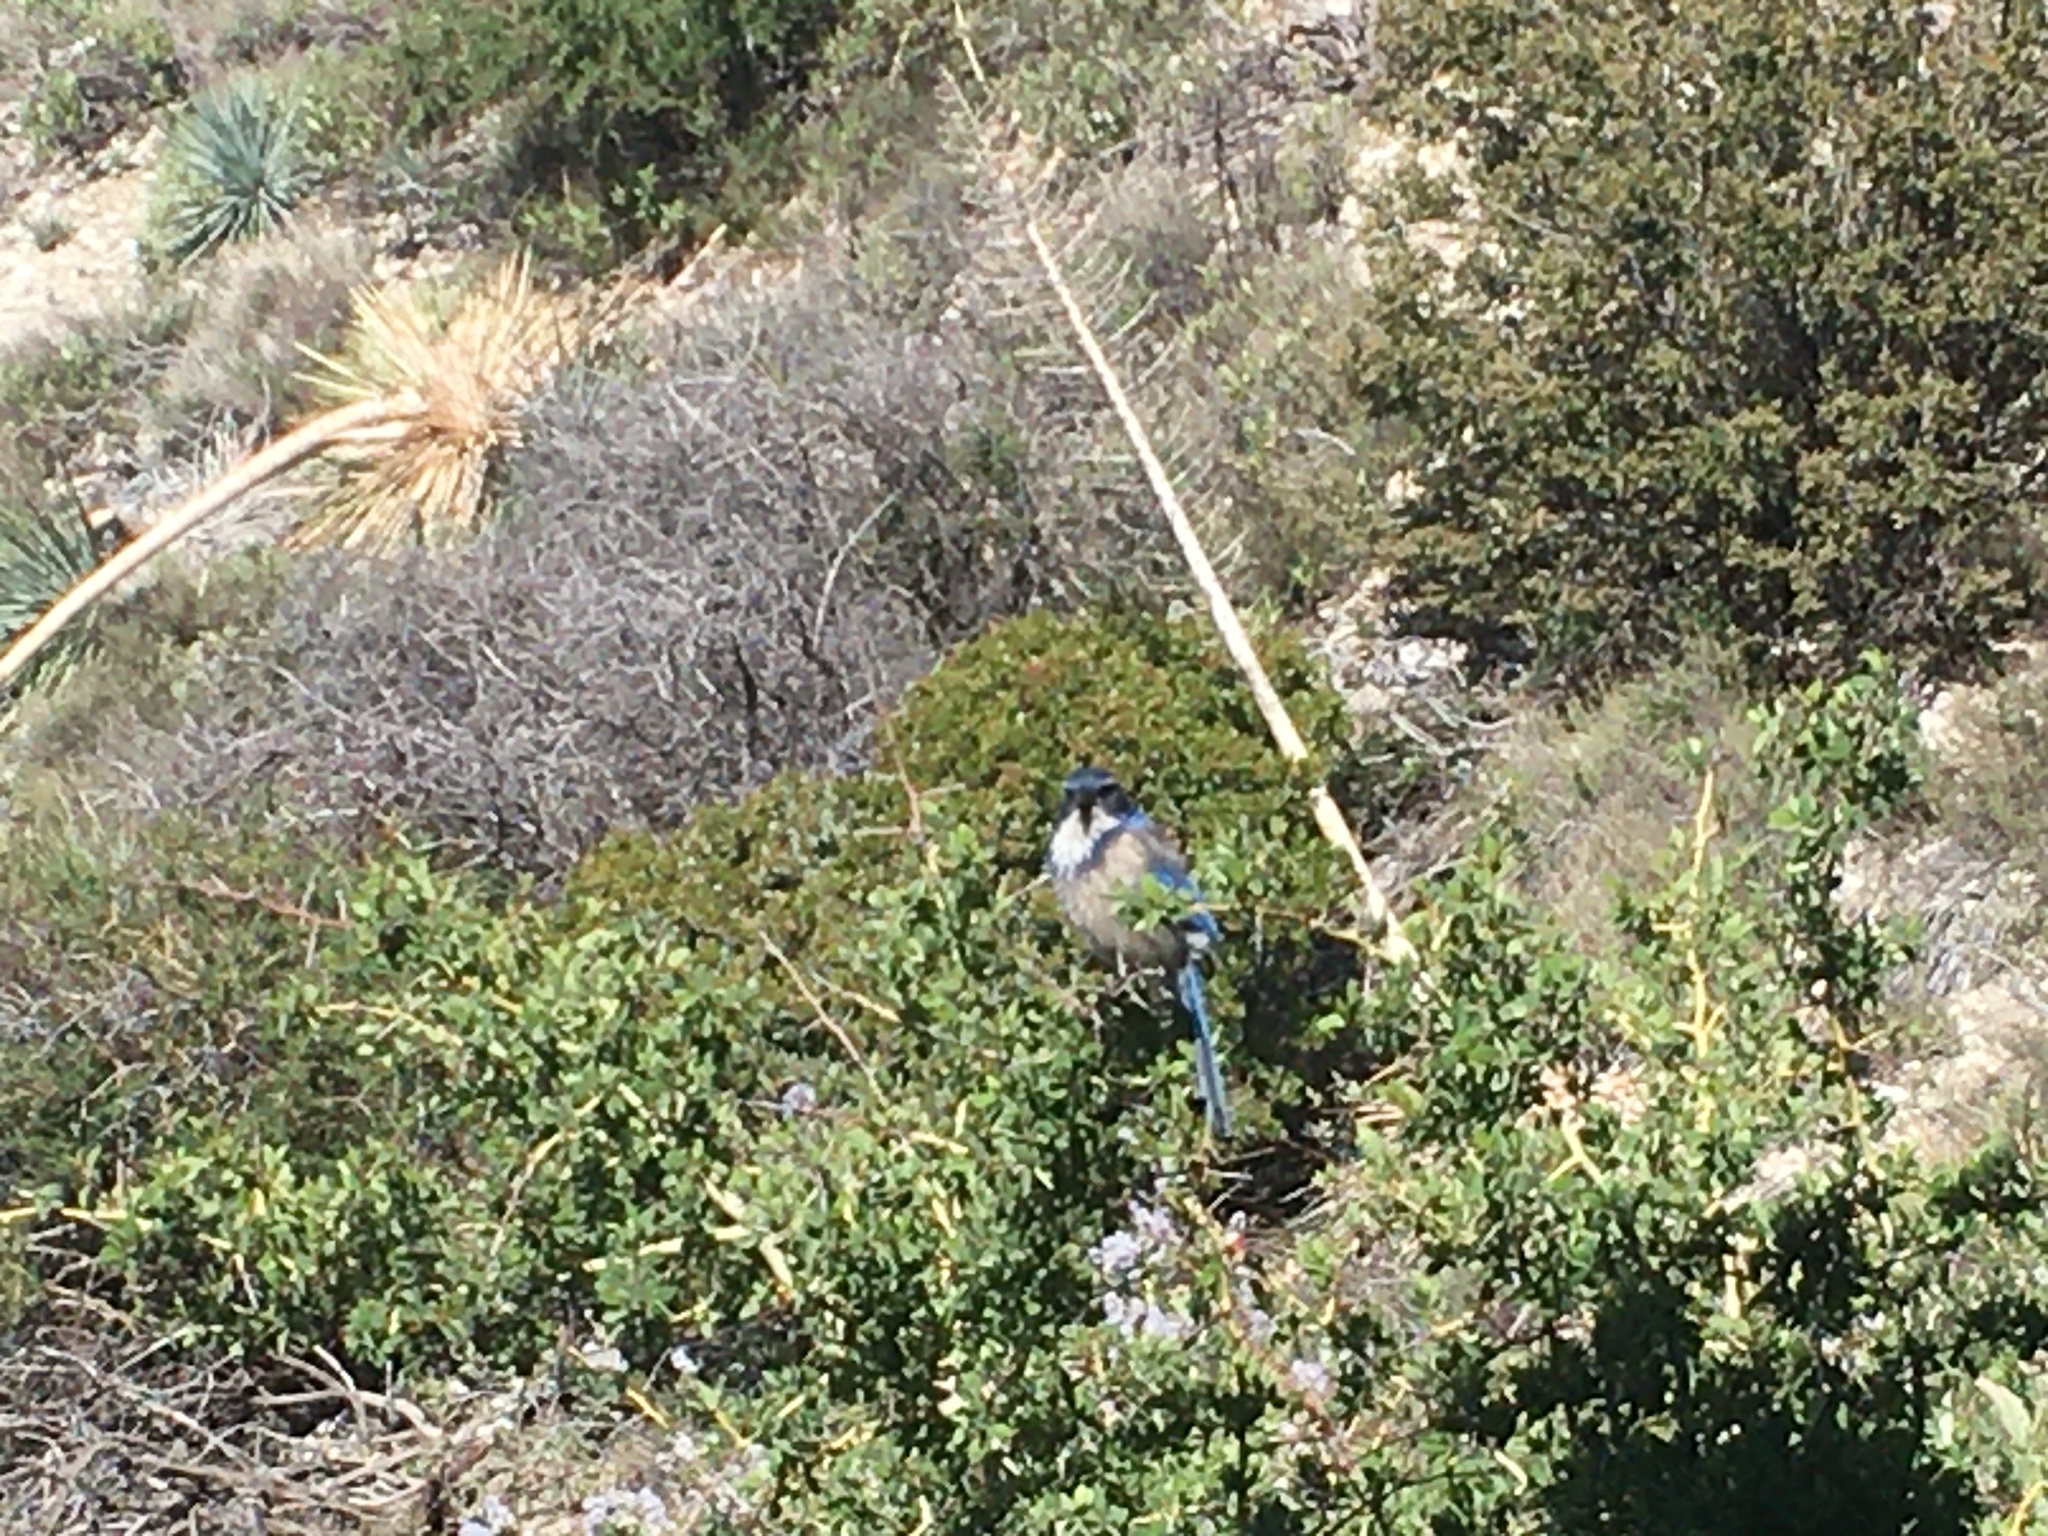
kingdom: Animalia
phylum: Chordata
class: Aves
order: Passeriformes
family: Corvidae
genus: Aphelocoma
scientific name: Aphelocoma californica
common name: California scrub-jay
